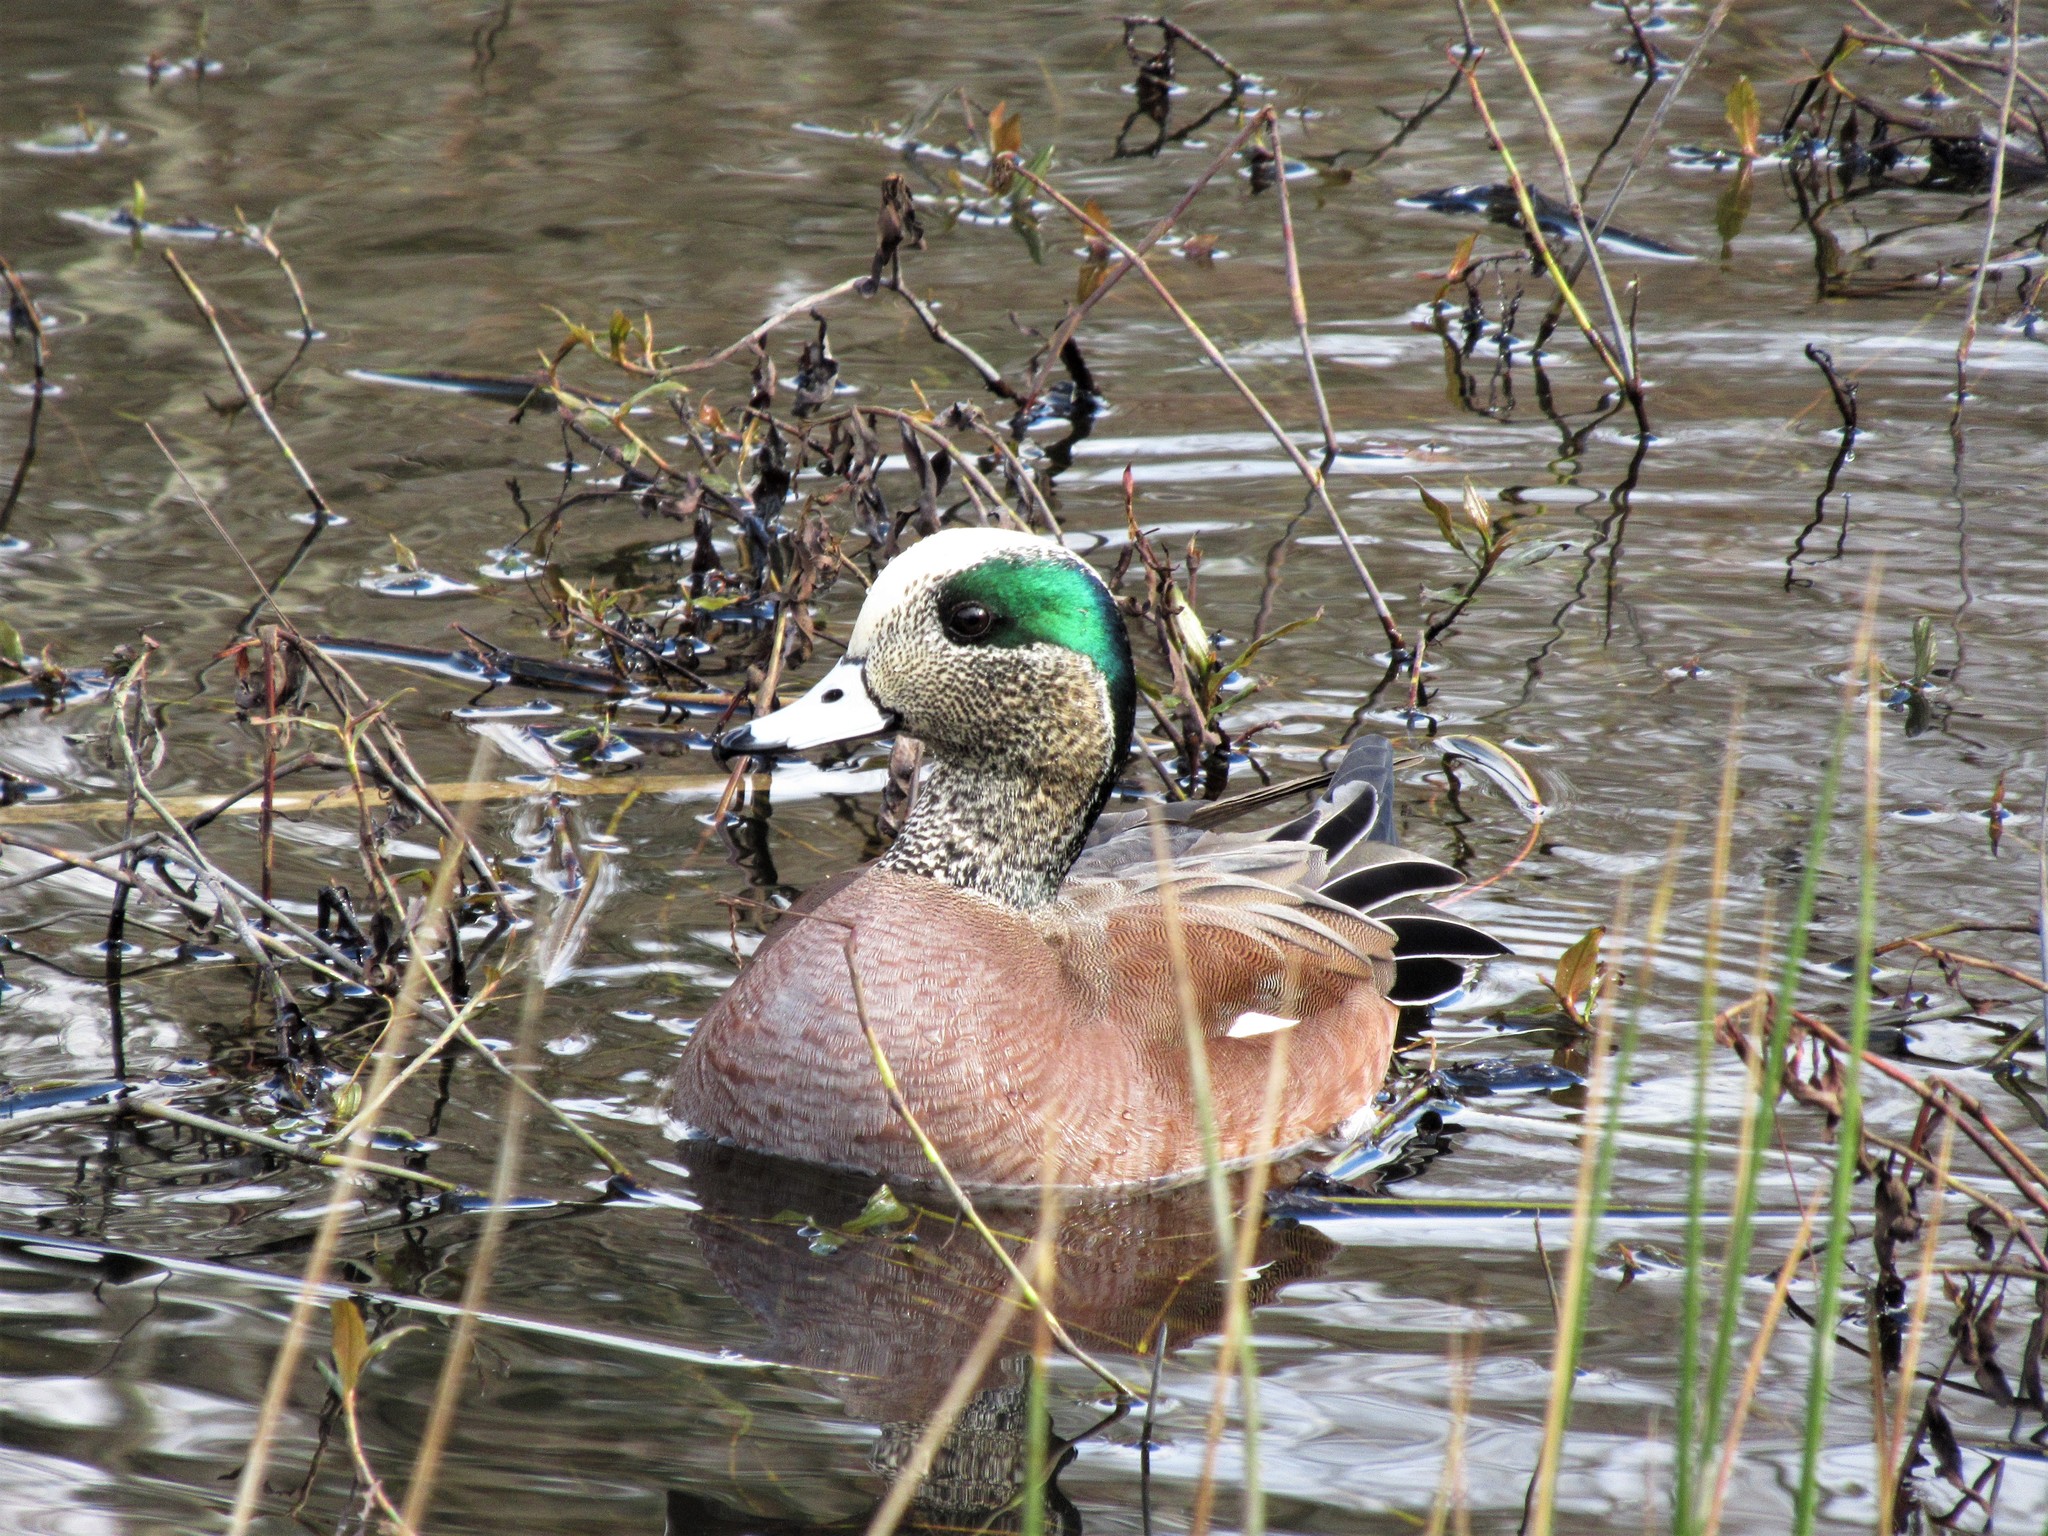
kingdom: Animalia
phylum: Chordata
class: Aves
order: Anseriformes
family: Anatidae
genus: Mareca
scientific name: Mareca americana
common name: American wigeon
